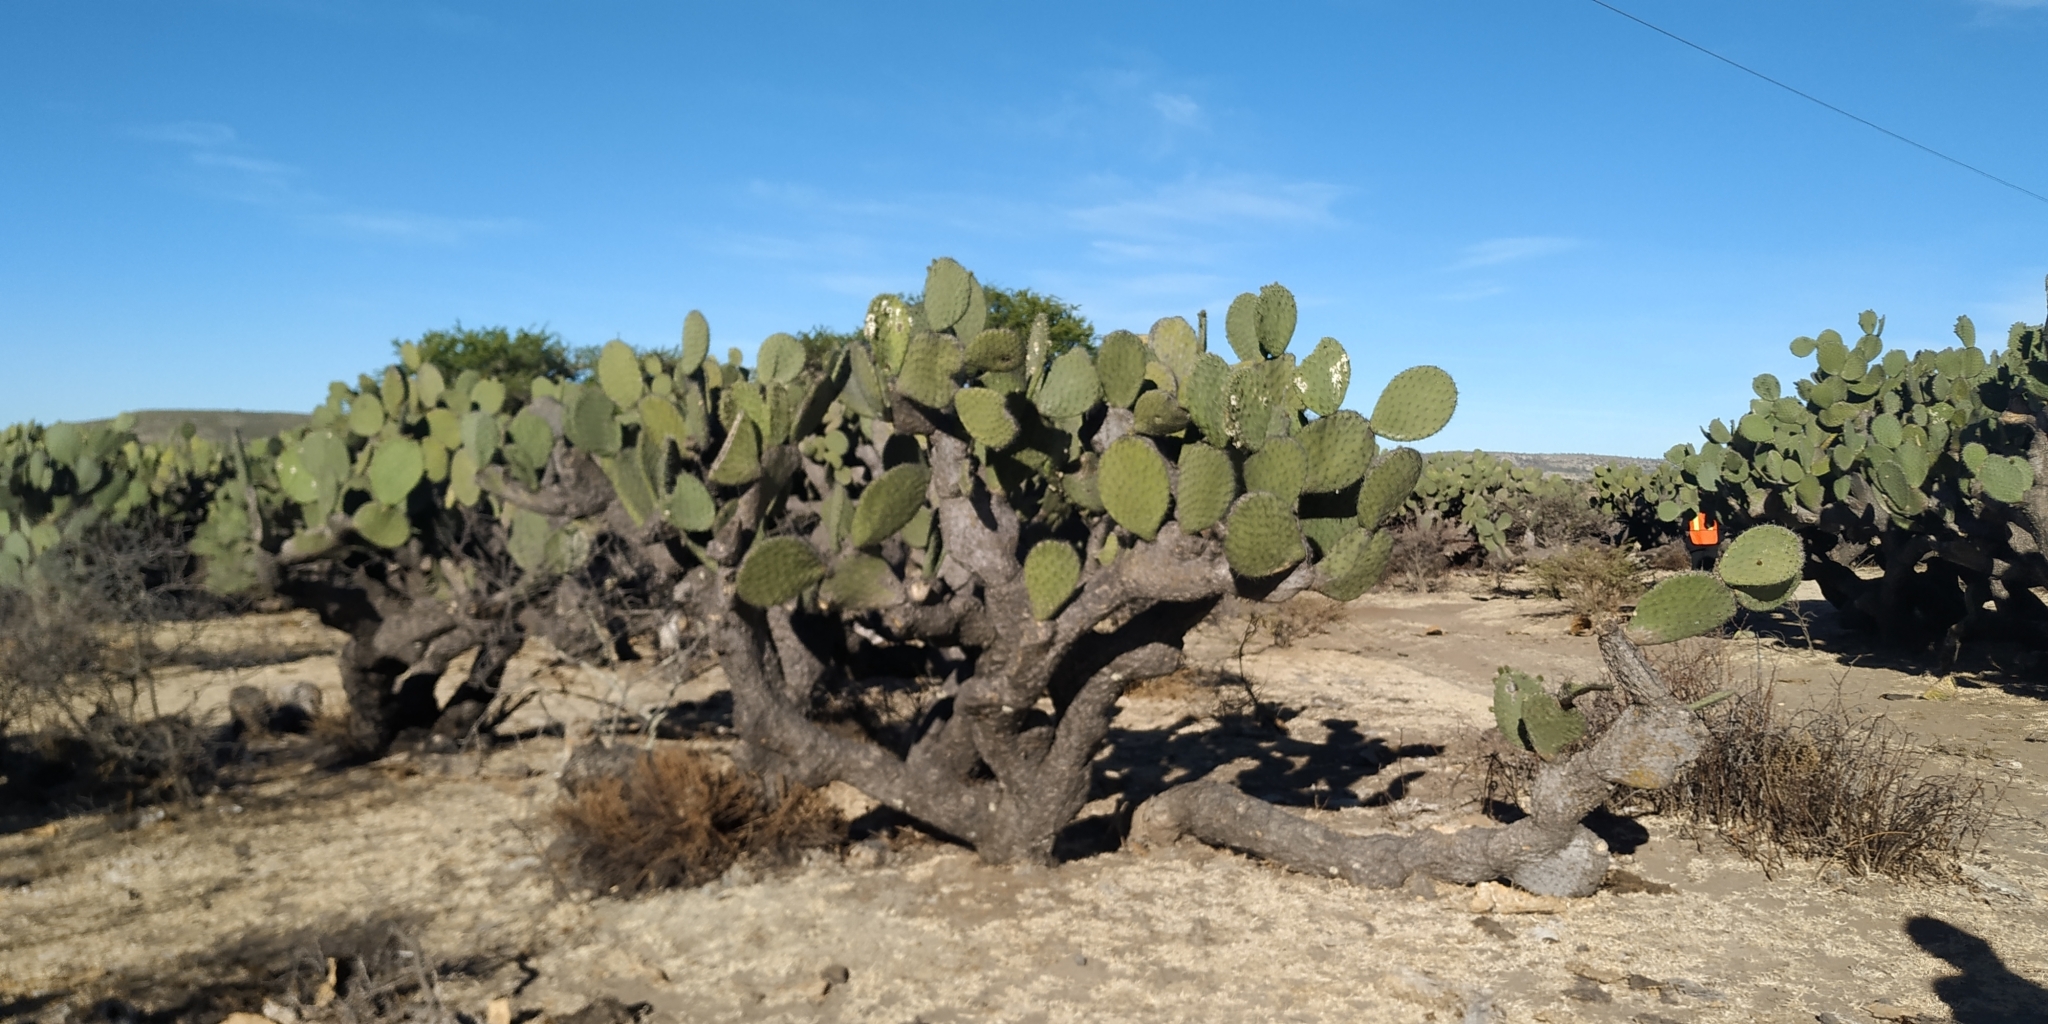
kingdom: Plantae
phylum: Tracheophyta
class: Magnoliopsida
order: Caryophyllales
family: Cactaceae
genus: Opuntia
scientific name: Opuntia streptacantha
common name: Gracemere-pear
